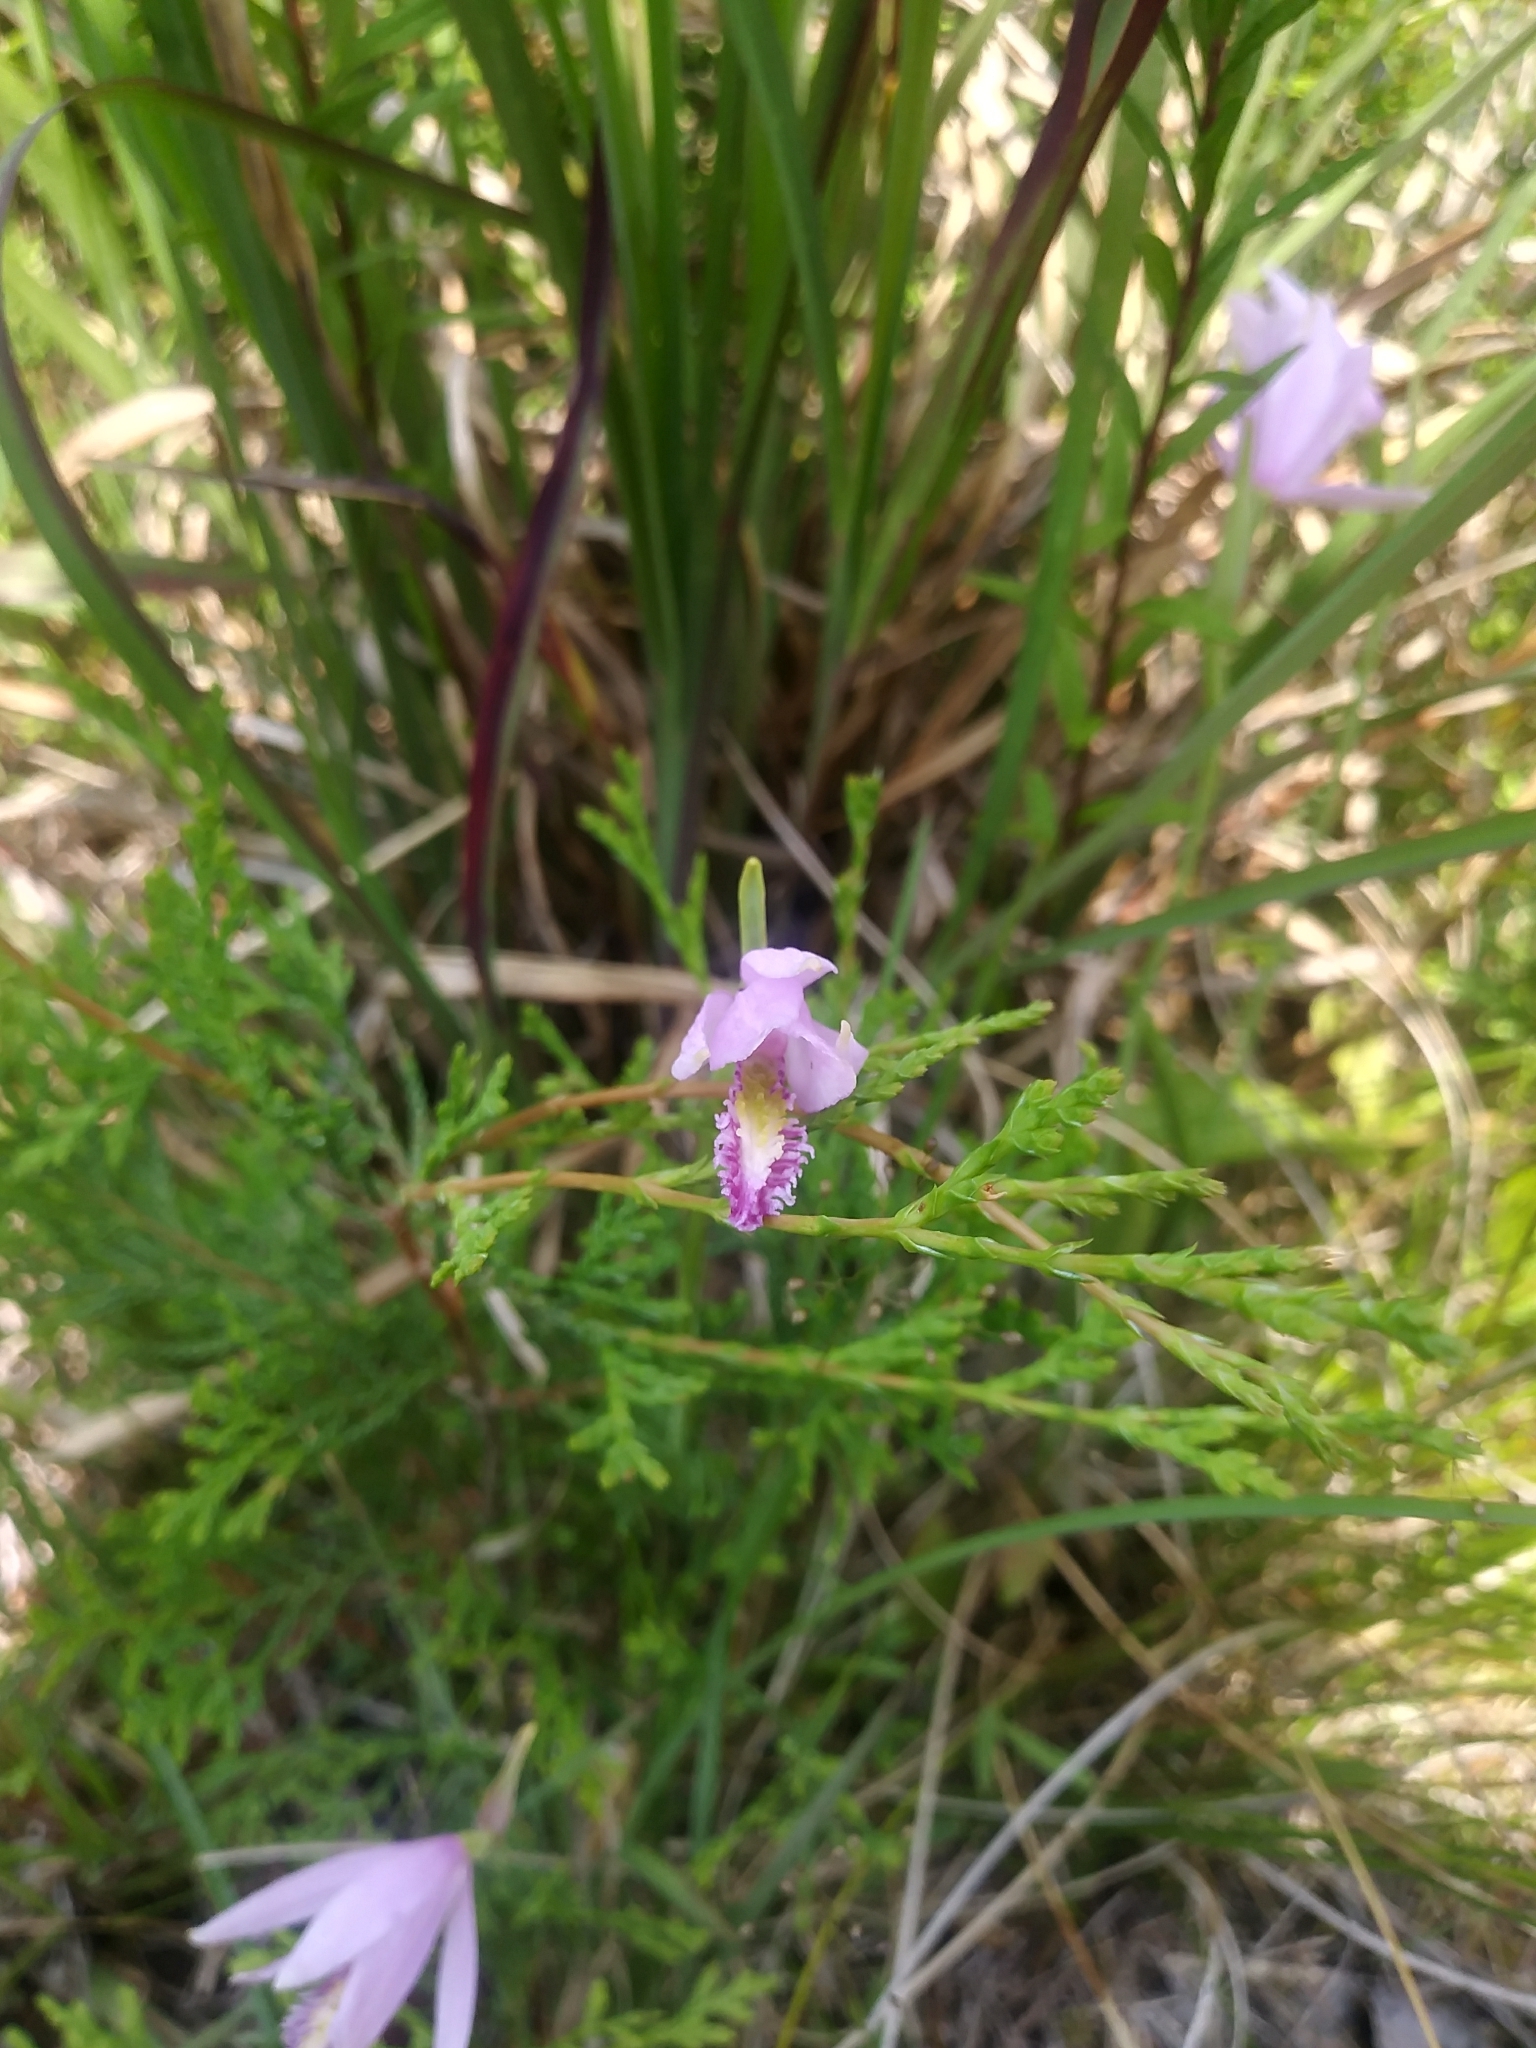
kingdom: Plantae
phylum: Tracheophyta
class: Liliopsida
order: Asparagales
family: Orchidaceae
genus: Pogonia
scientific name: Pogonia ophioglossoides
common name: Rose pogonia
